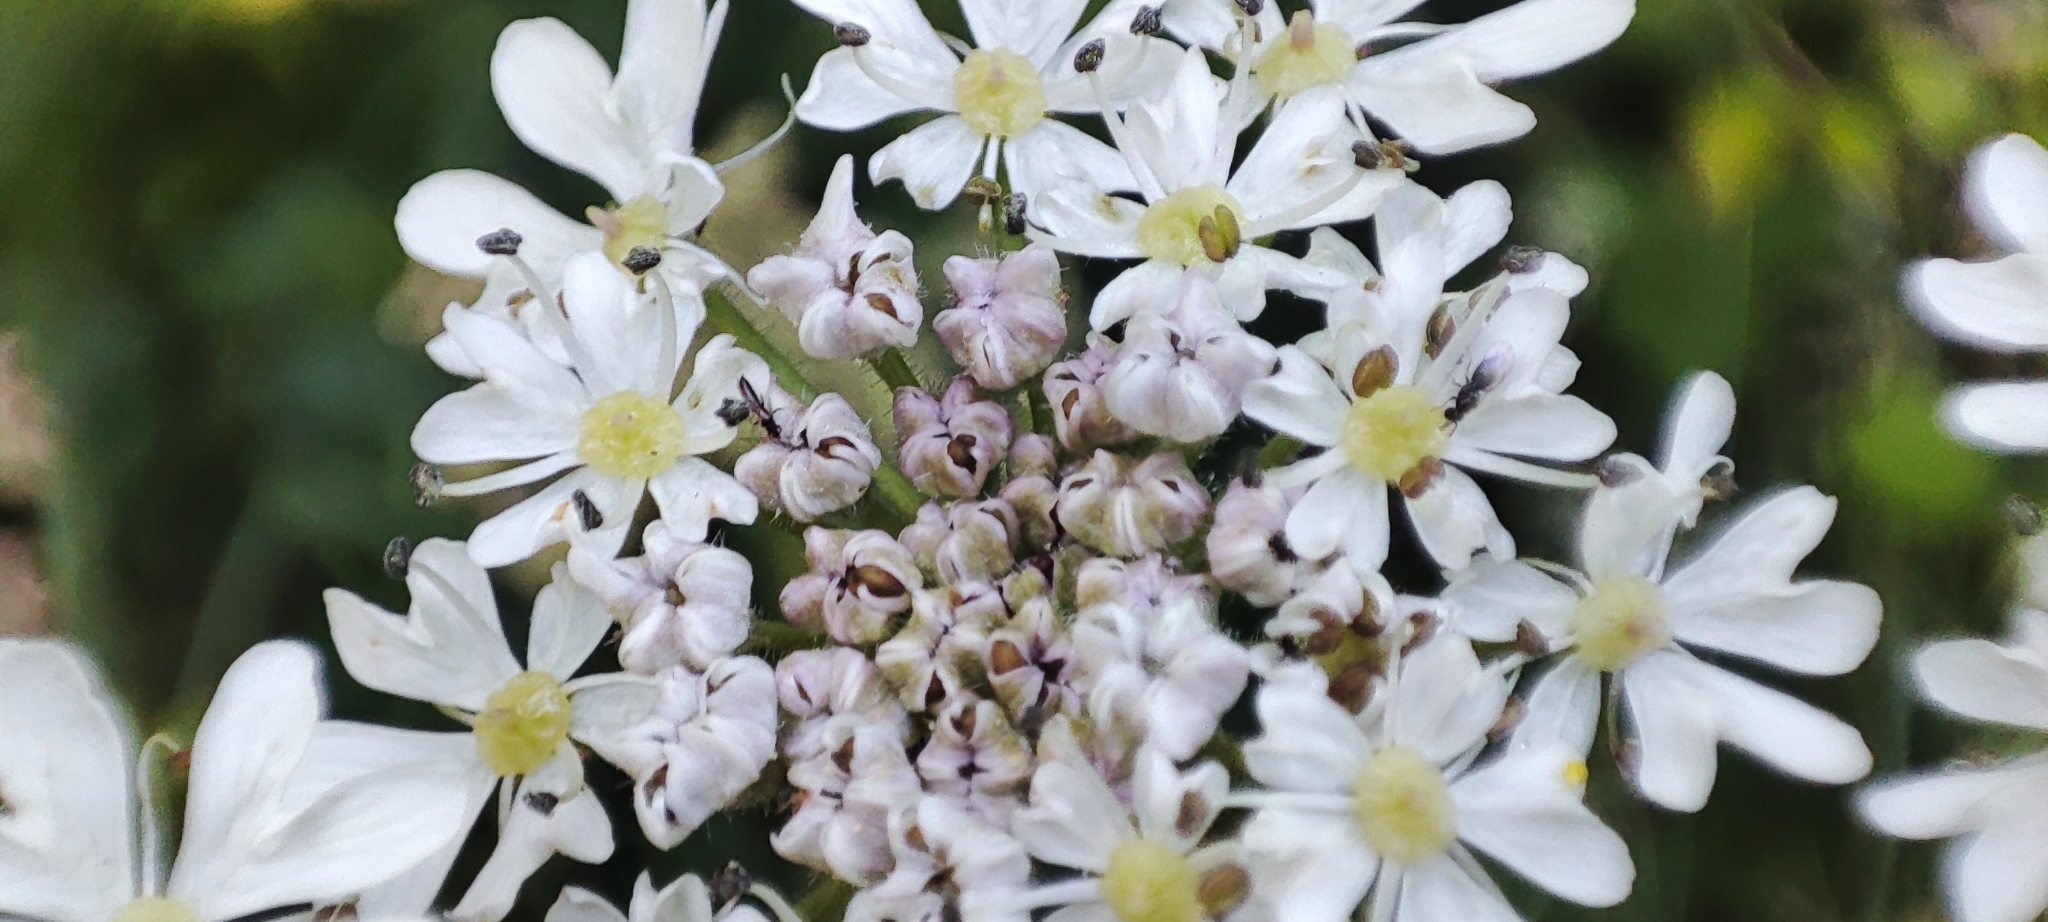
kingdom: Plantae
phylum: Tracheophyta
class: Magnoliopsida
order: Apiales
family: Apiaceae
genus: Heracleum
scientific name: Heracleum sphondylium
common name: Hogweed
